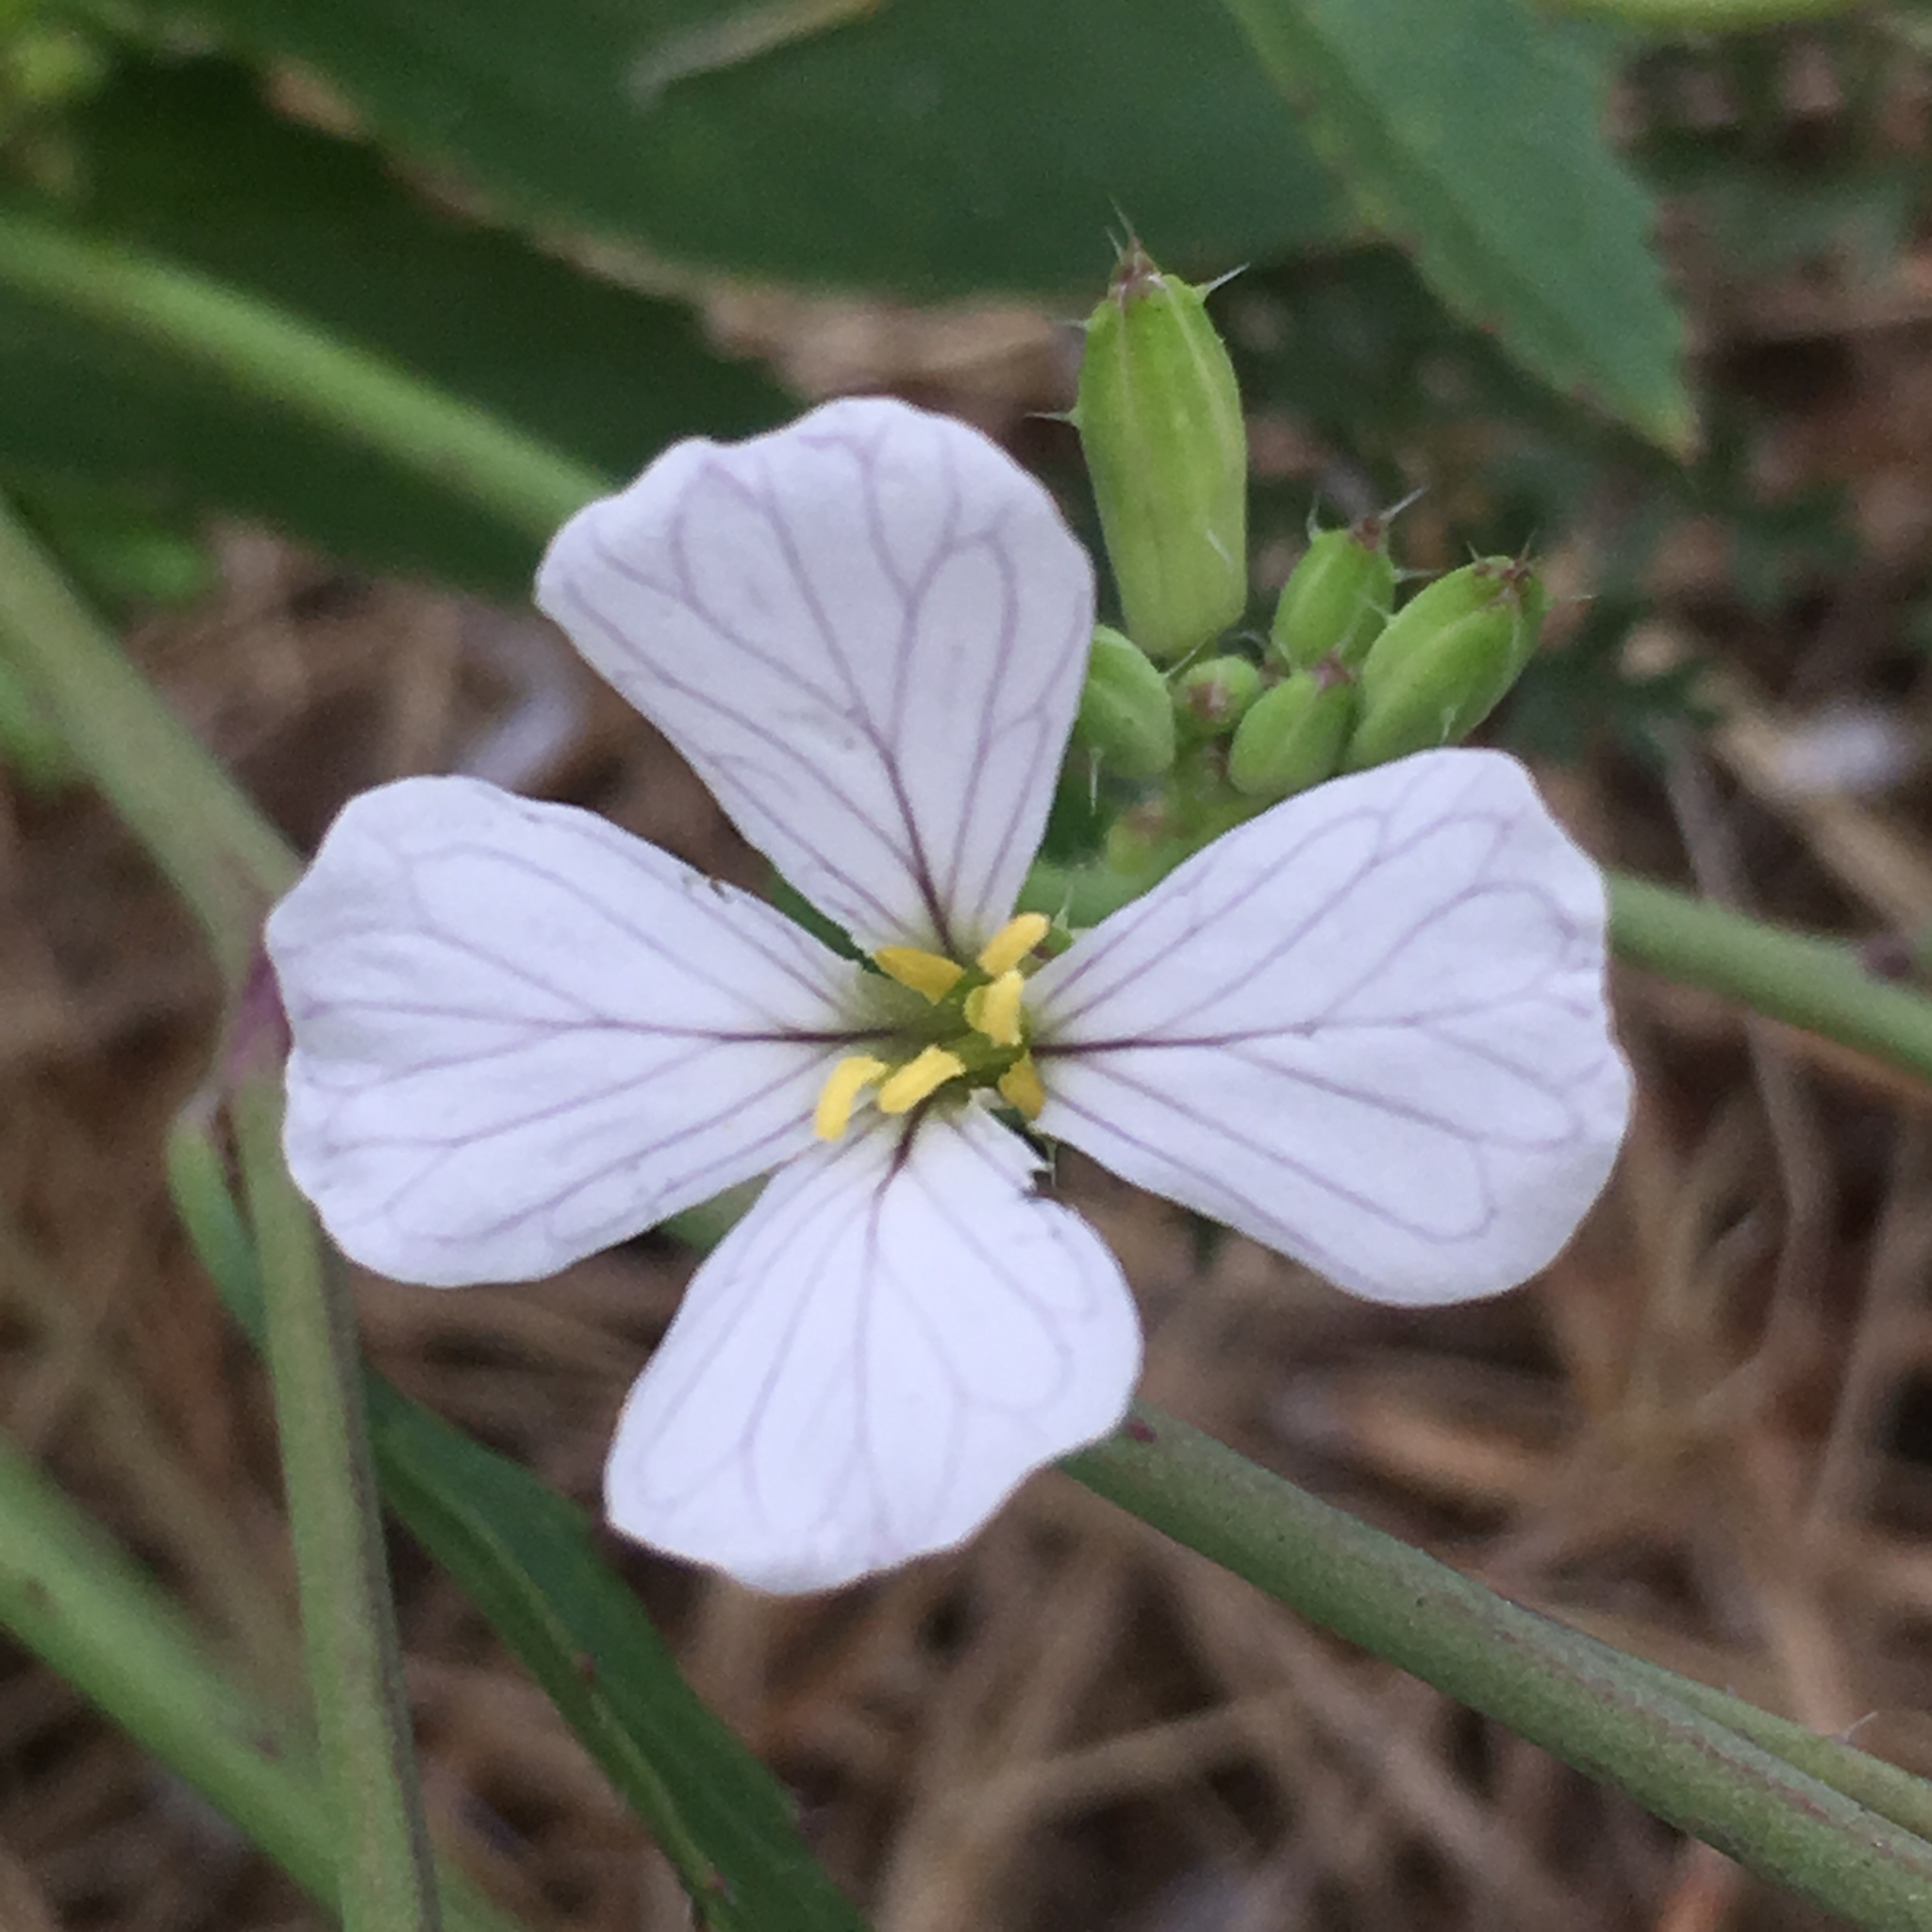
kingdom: Plantae
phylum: Tracheophyta
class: Magnoliopsida
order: Brassicales
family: Brassicaceae
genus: Raphanus
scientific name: Raphanus raphanistrum
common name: Wild radish
